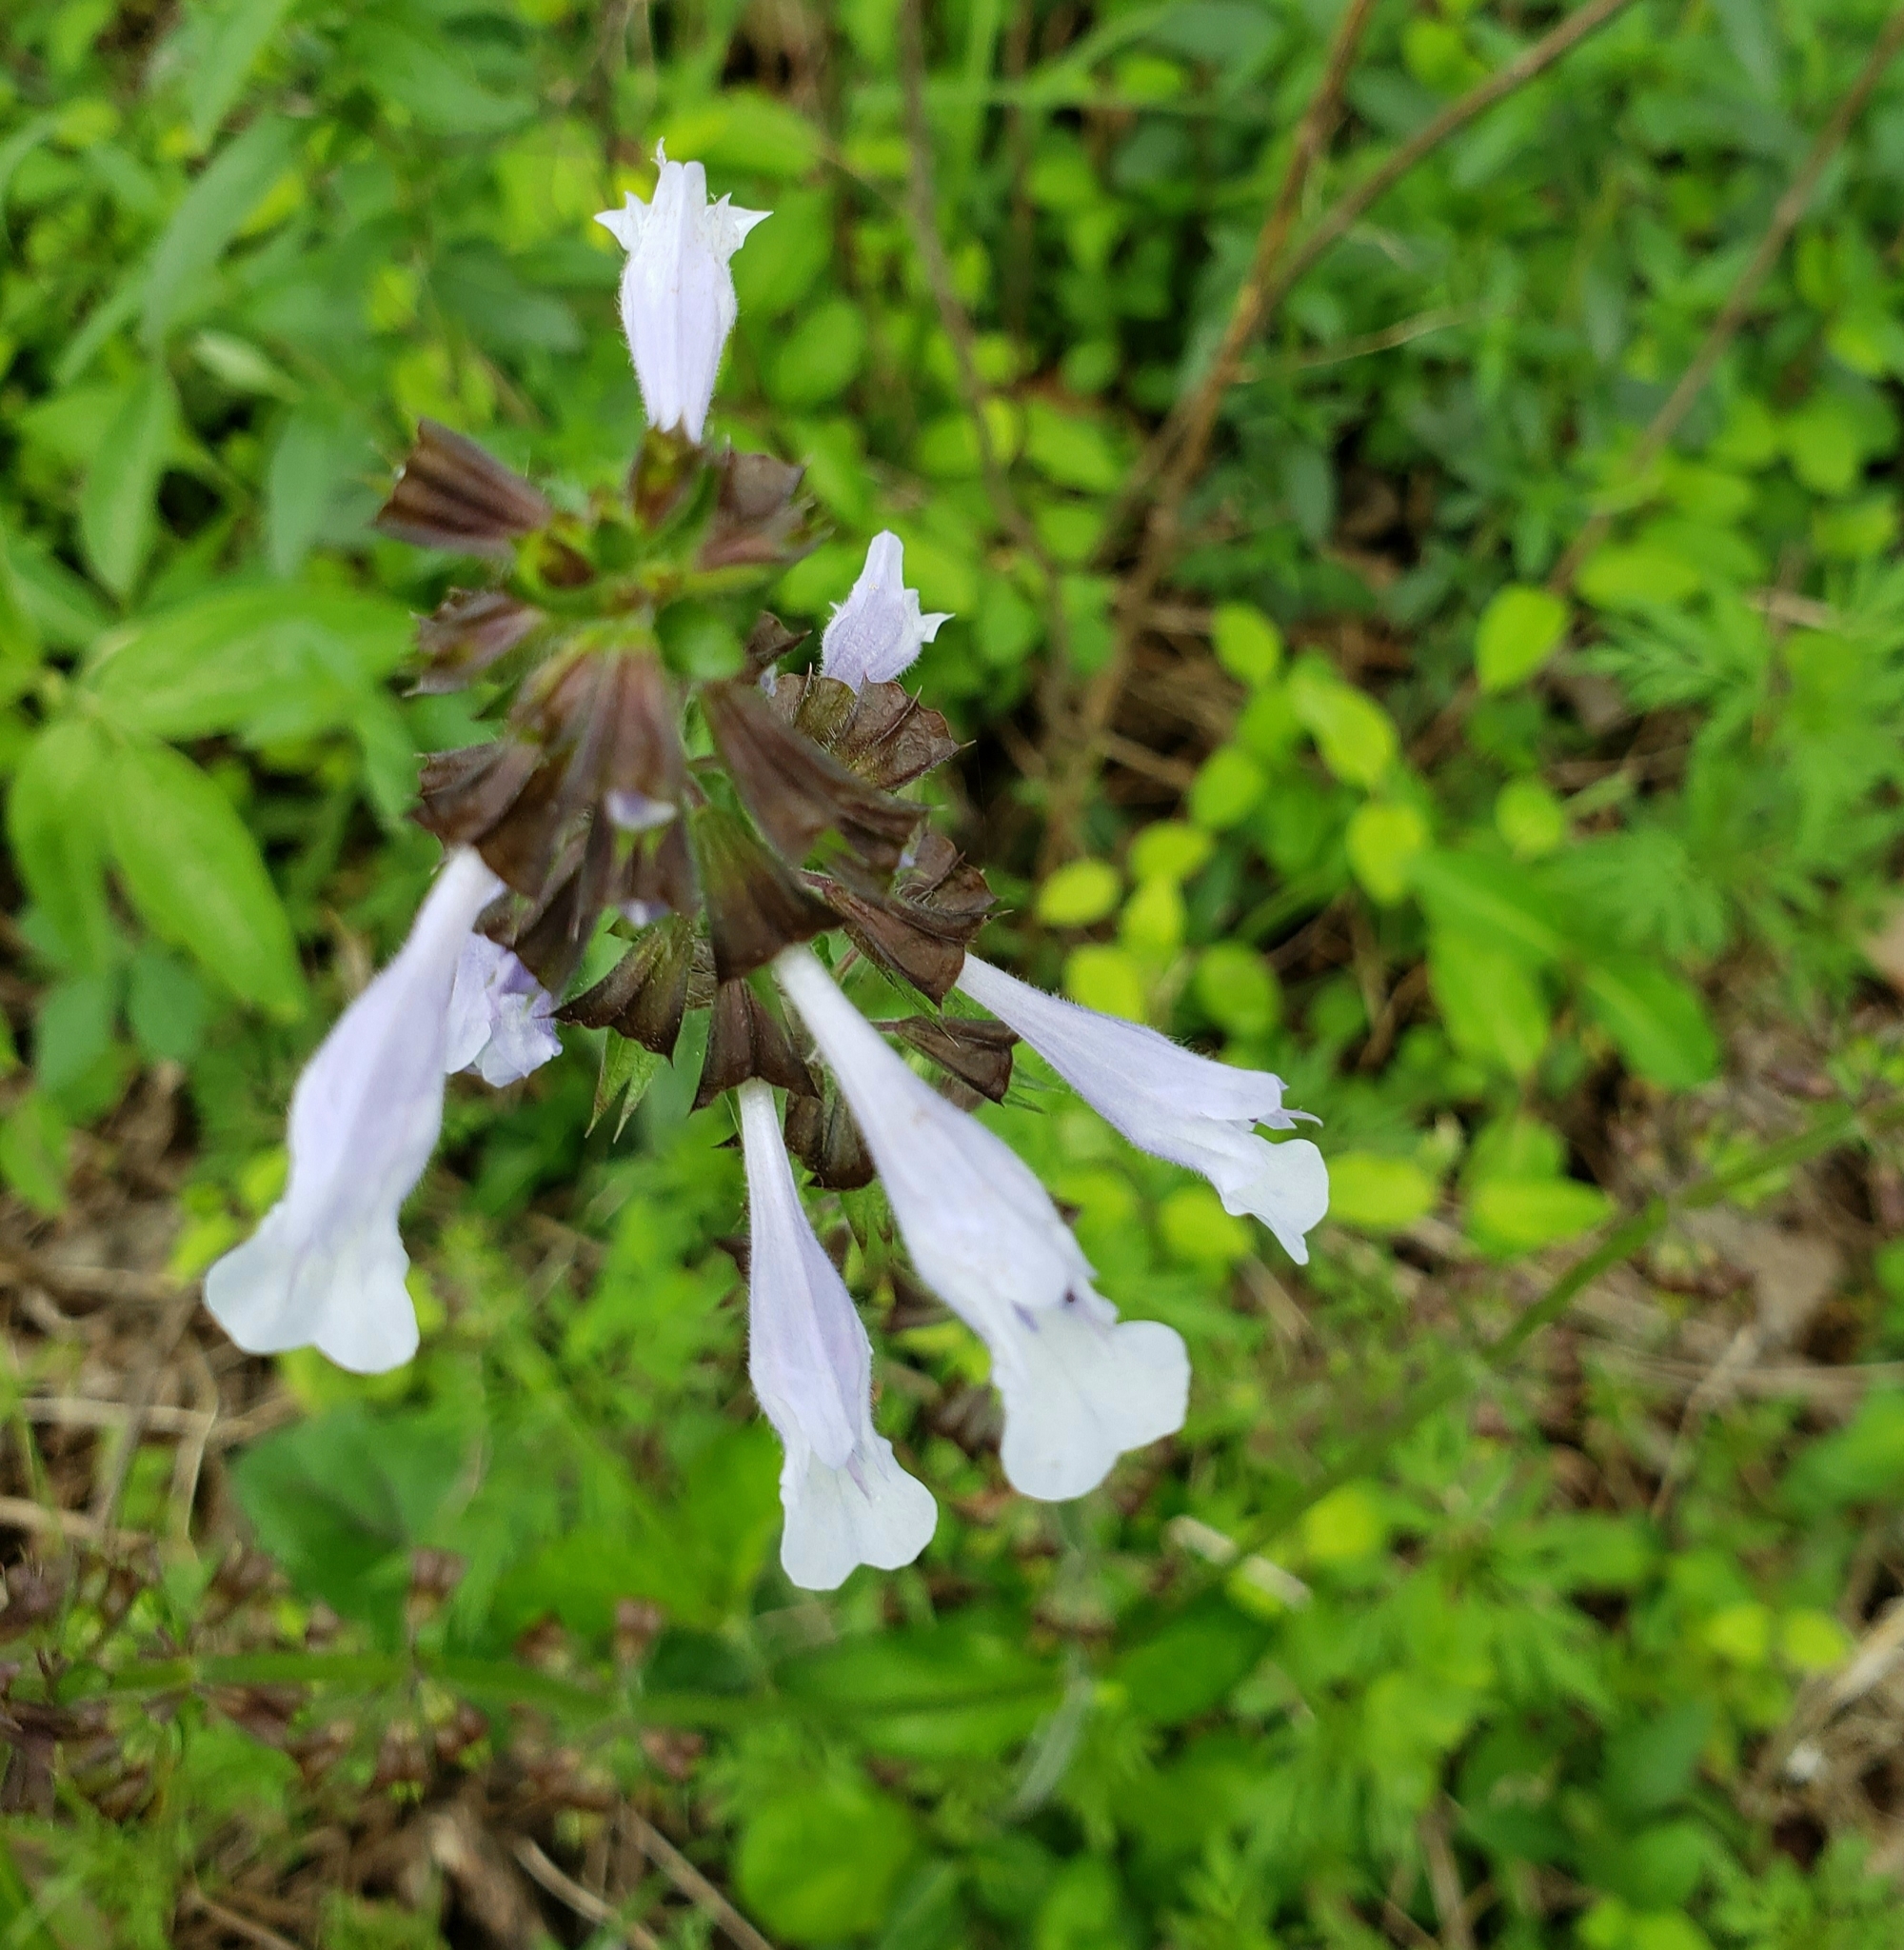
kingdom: Plantae
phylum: Tracheophyta
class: Magnoliopsida
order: Lamiales
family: Lamiaceae
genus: Salvia
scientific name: Salvia lyrata
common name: Cancerweed
